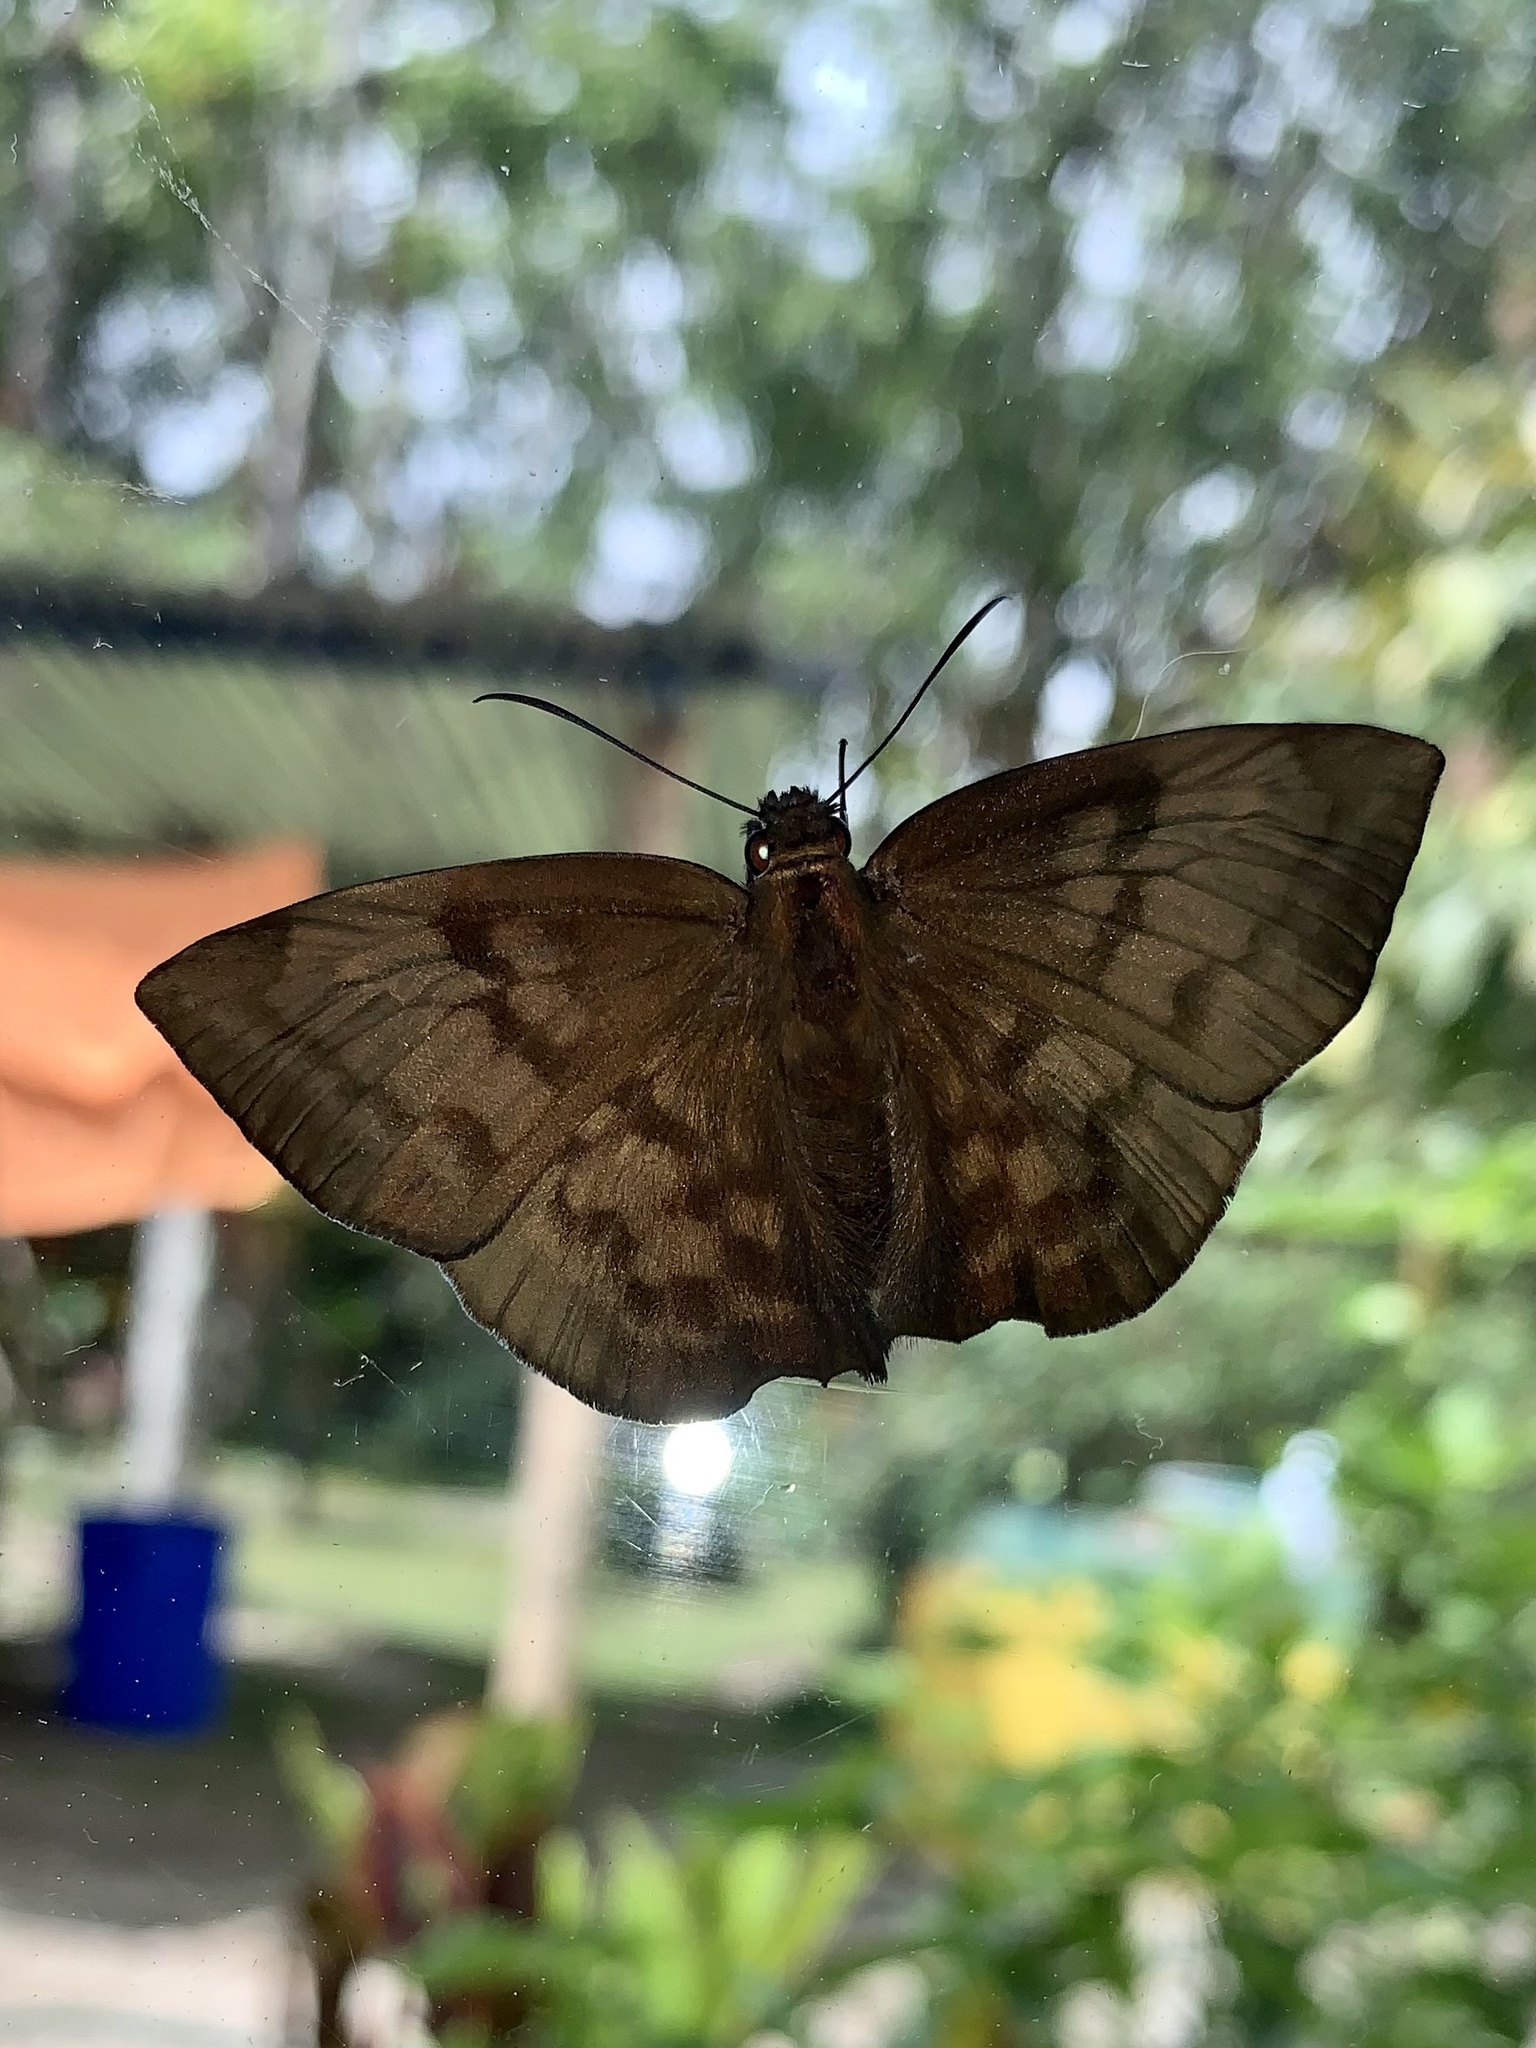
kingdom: Animalia
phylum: Arthropoda
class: Insecta
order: Lepidoptera
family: Hesperiidae
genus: Achlyodes
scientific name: Achlyodes pallida
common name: Pale sicklewing
